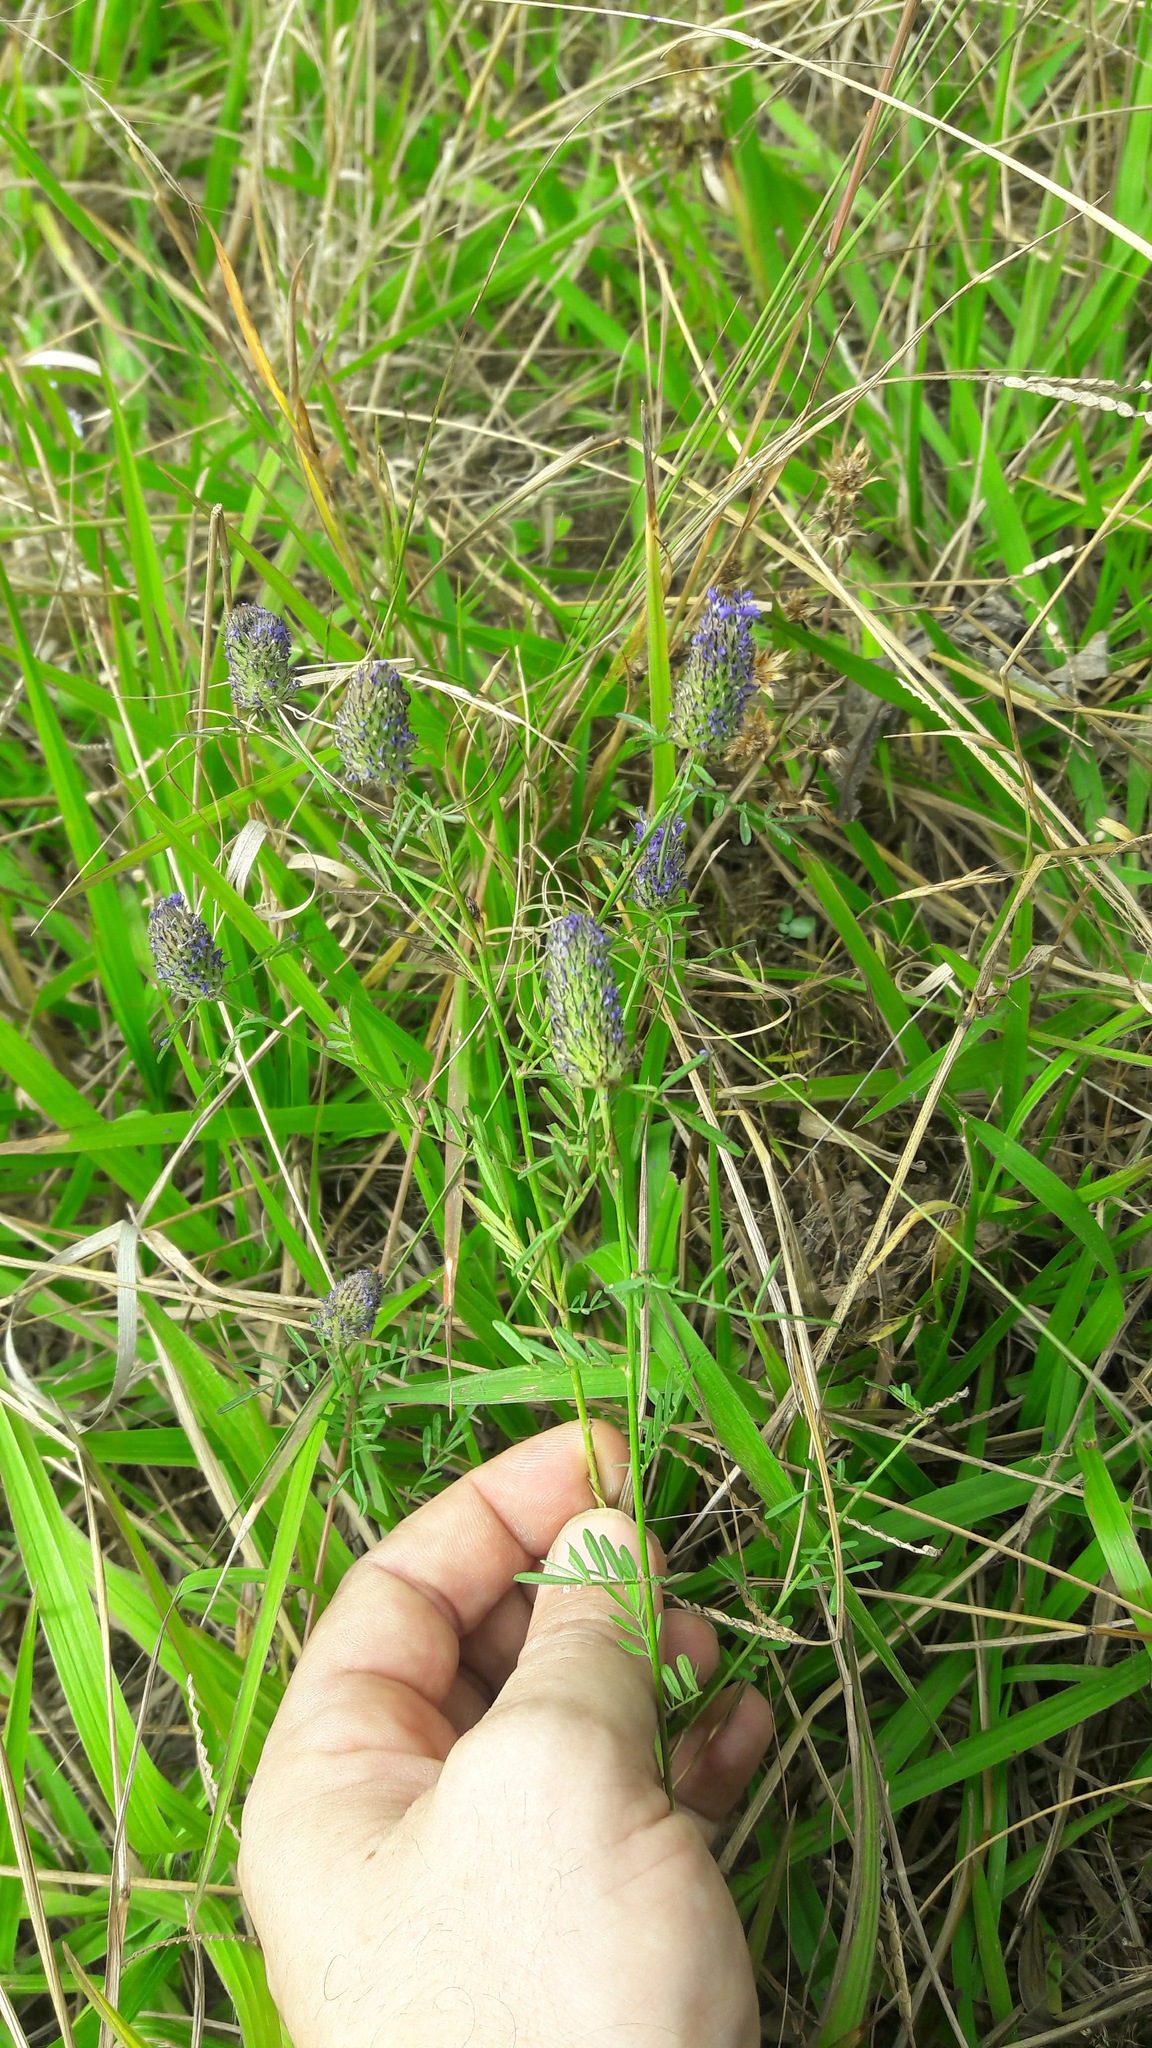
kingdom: Plantae
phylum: Tracheophyta
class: Magnoliopsida
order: Fabales
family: Fabaceae
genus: Dalea
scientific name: Dalea leporina
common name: Foxtail dalea
